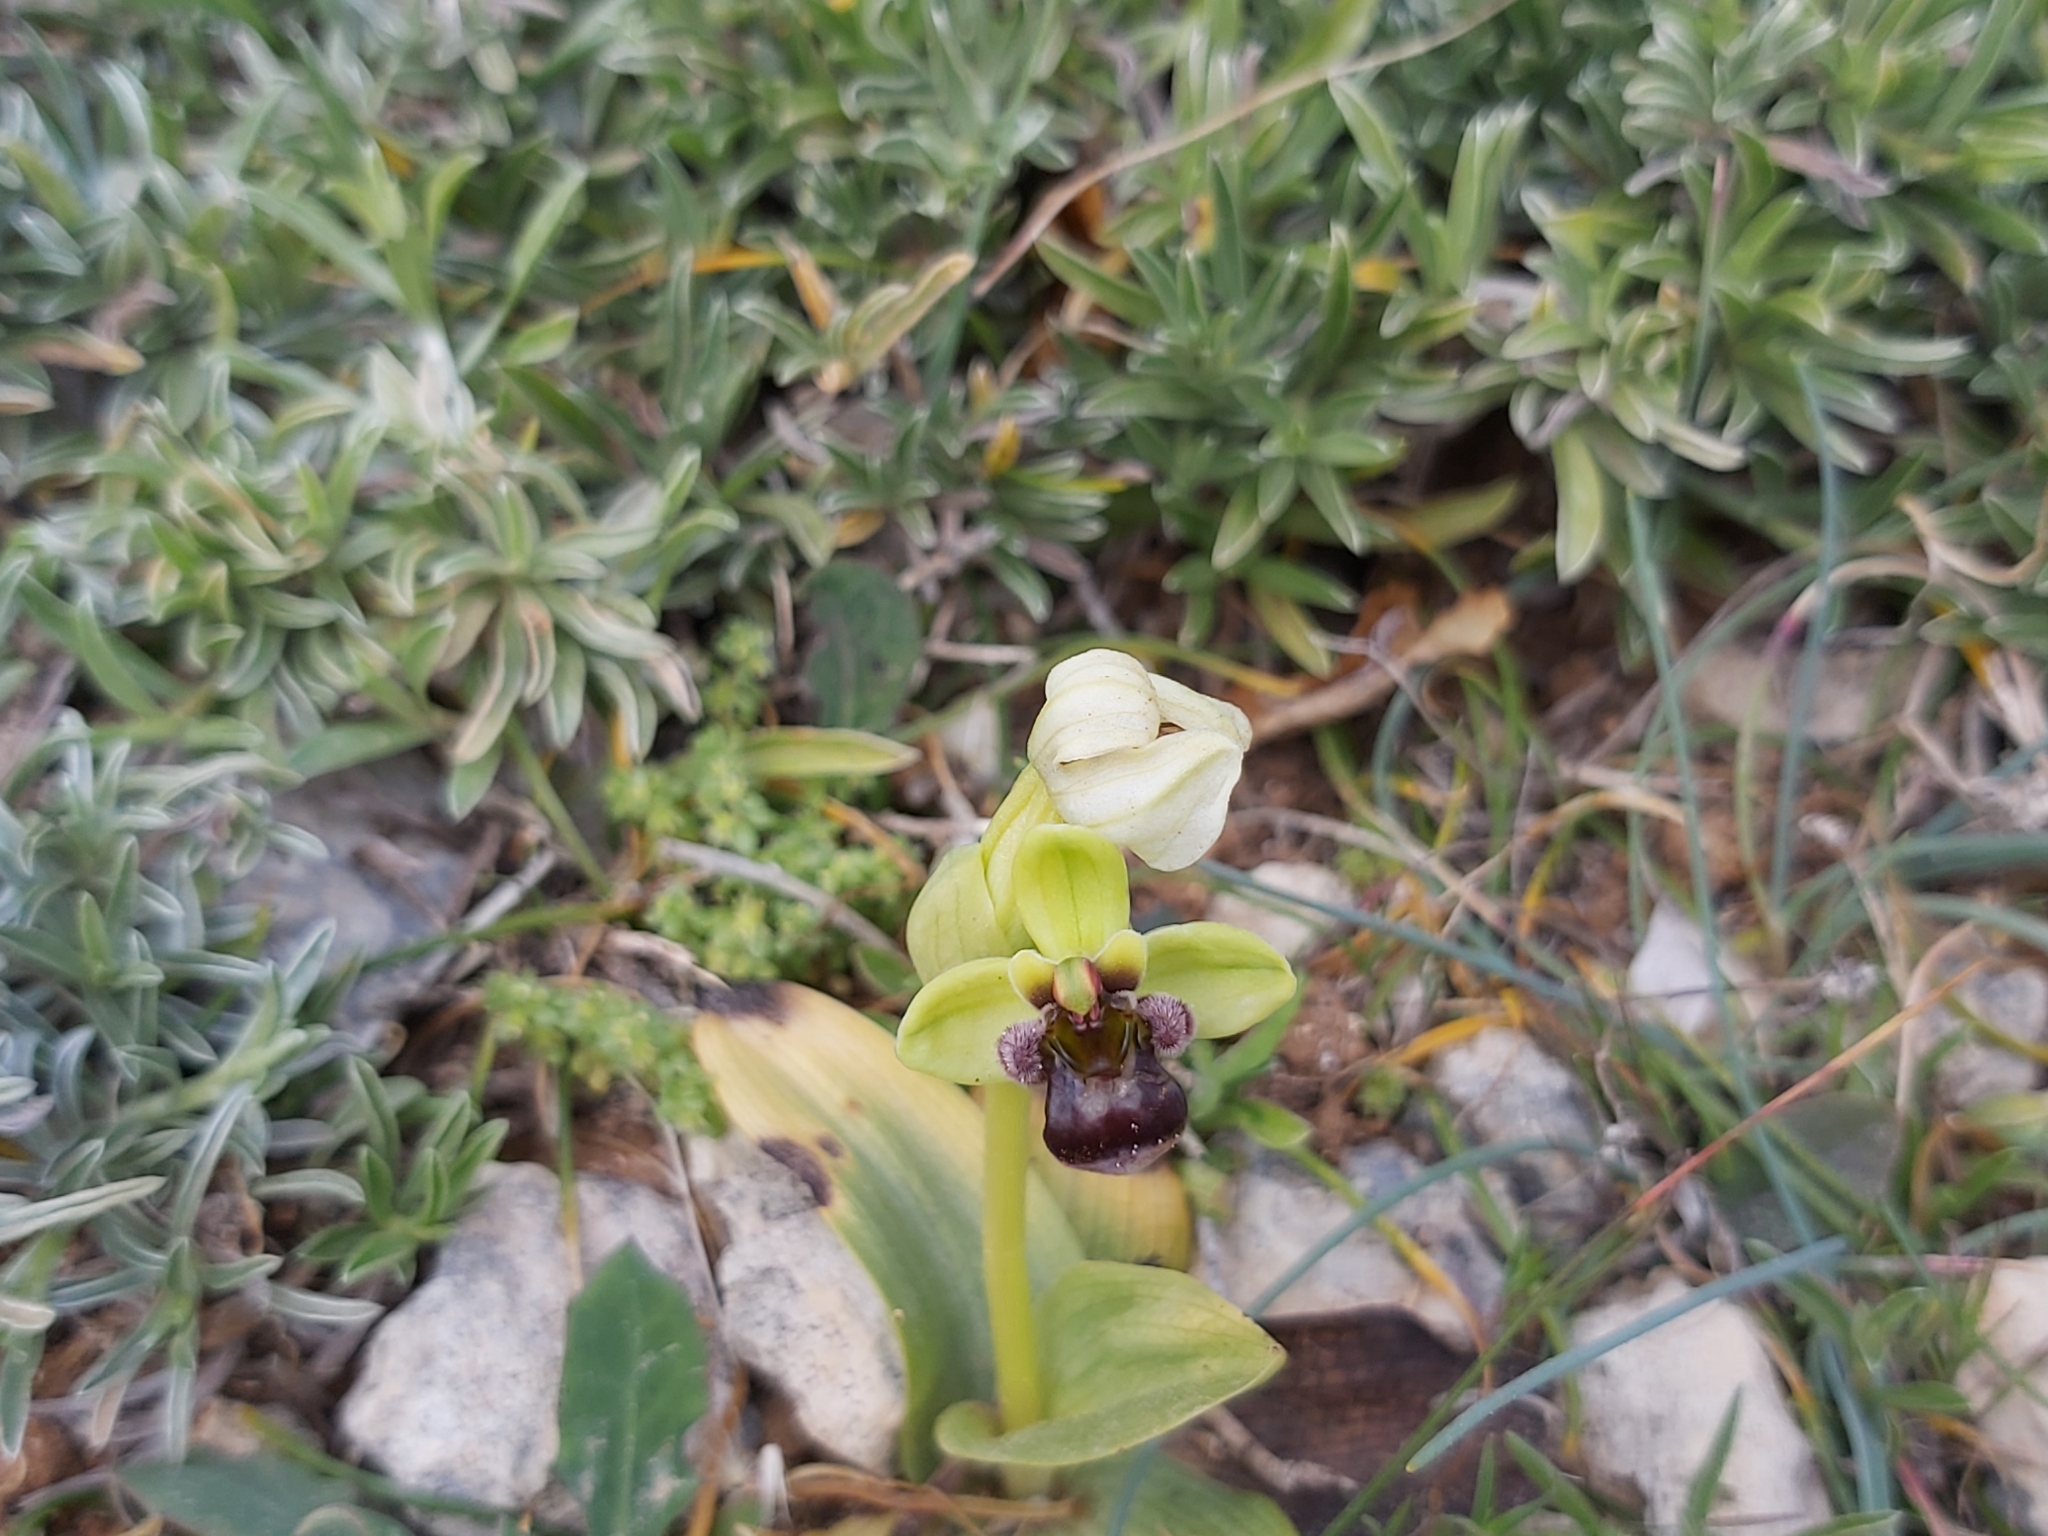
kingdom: Plantae
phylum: Tracheophyta
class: Liliopsida
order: Asparagales
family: Orchidaceae
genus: Ophrys
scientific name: Ophrys bombyliflora
